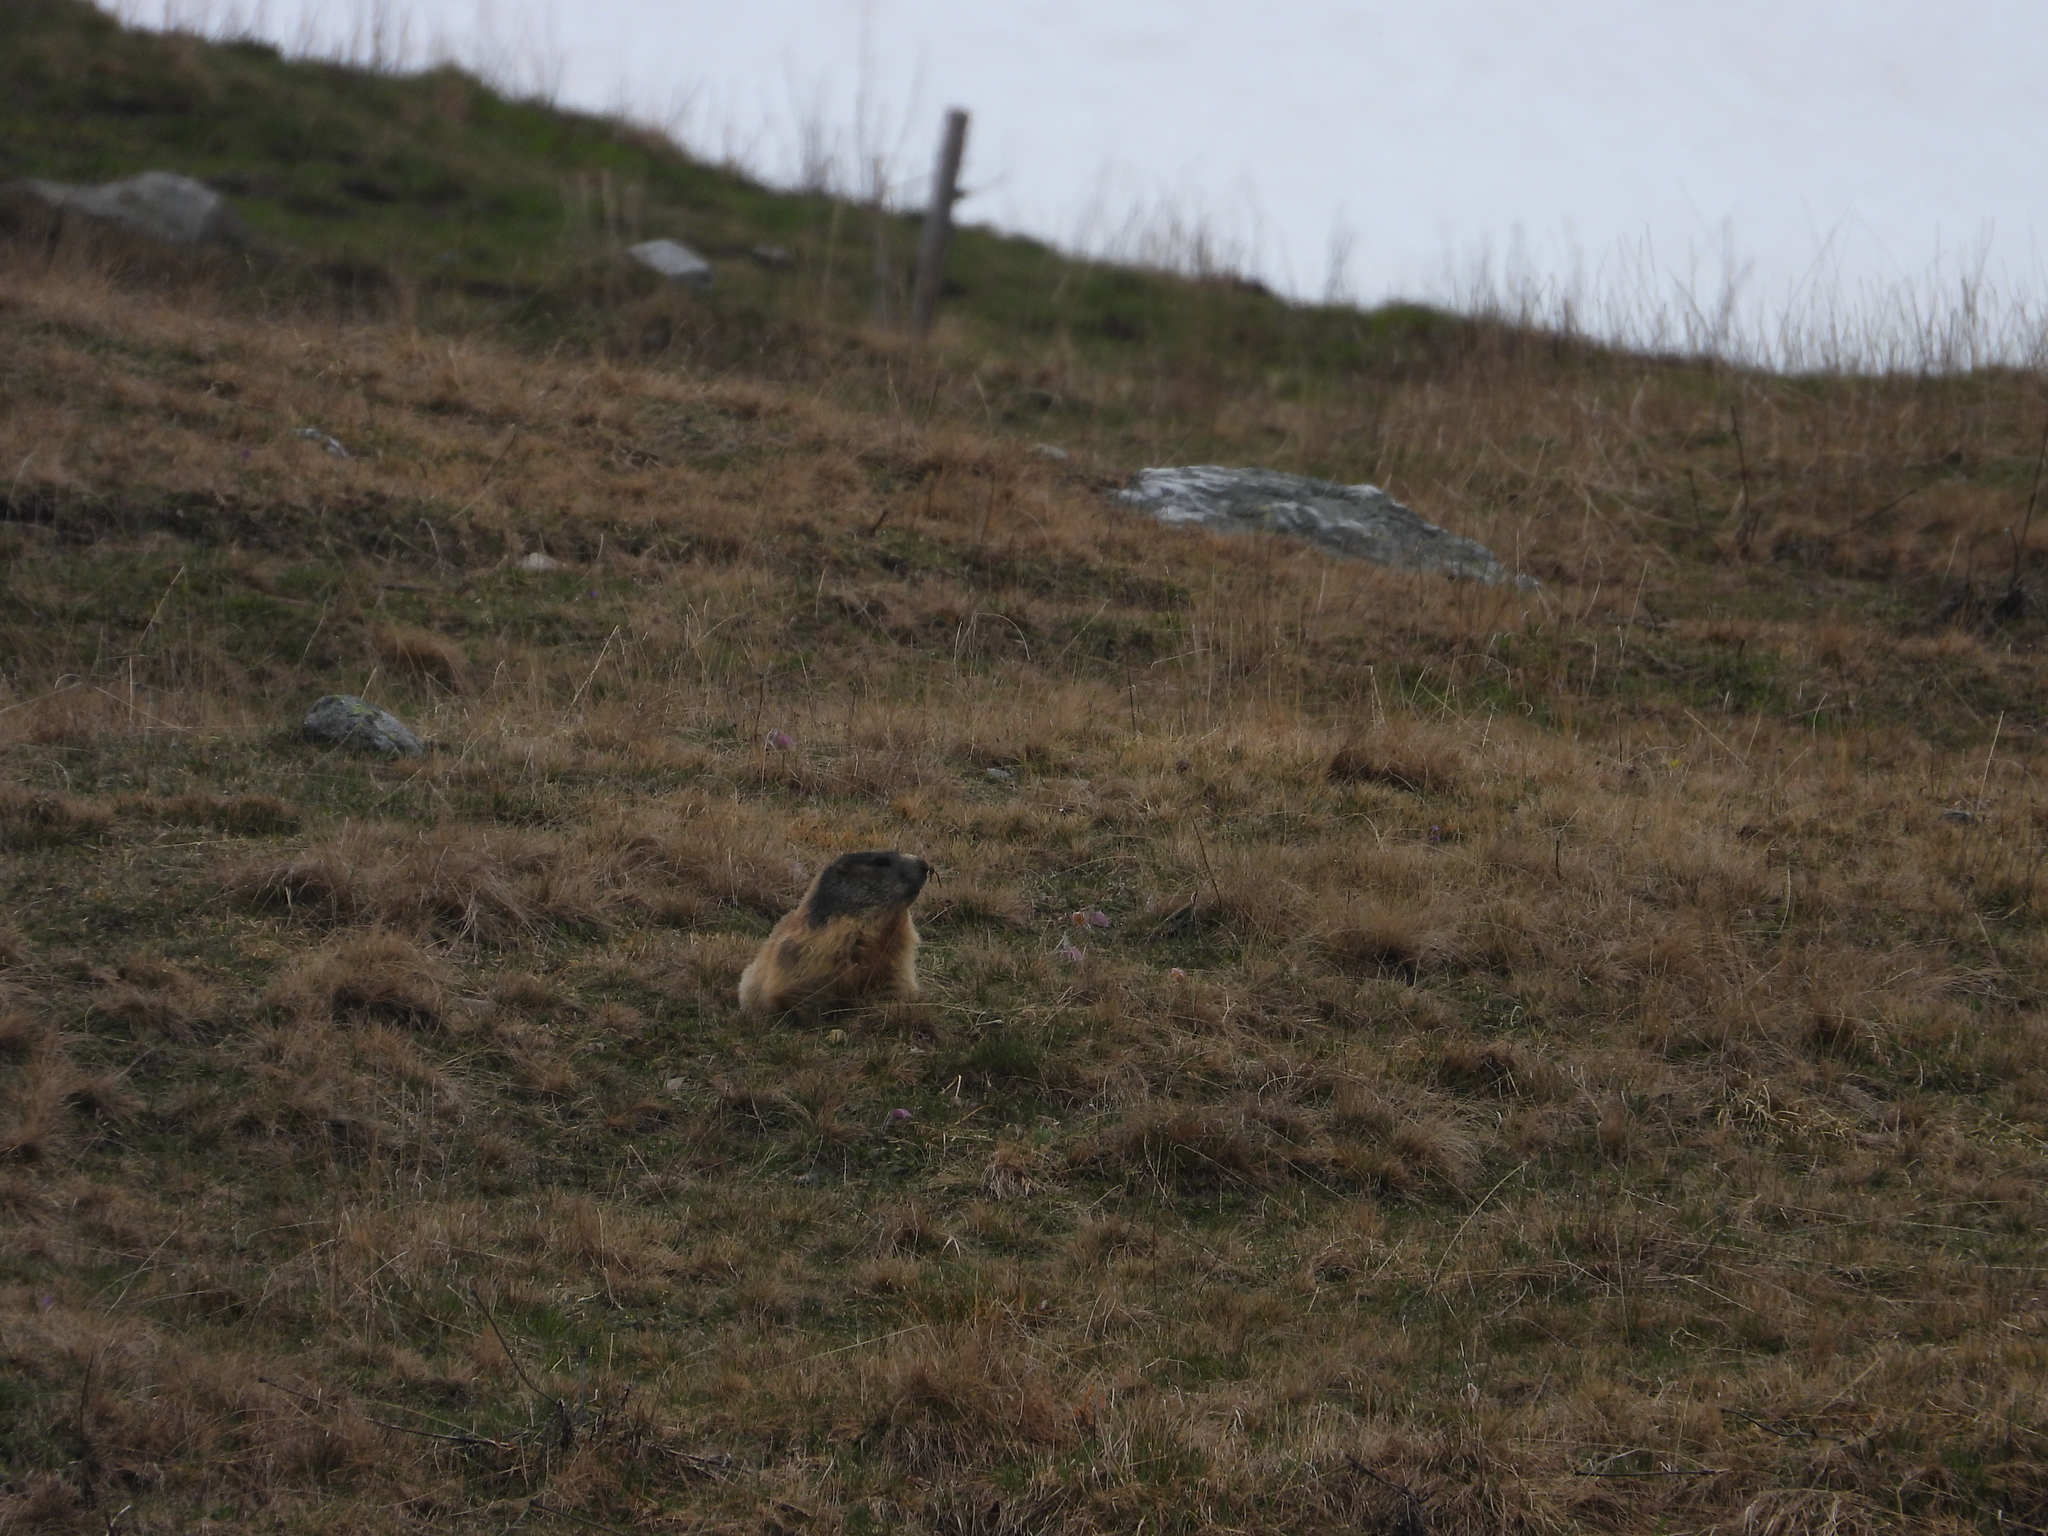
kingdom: Animalia
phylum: Chordata
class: Mammalia
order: Rodentia
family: Sciuridae
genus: Marmota
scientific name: Marmota marmota
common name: Alpine marmot
